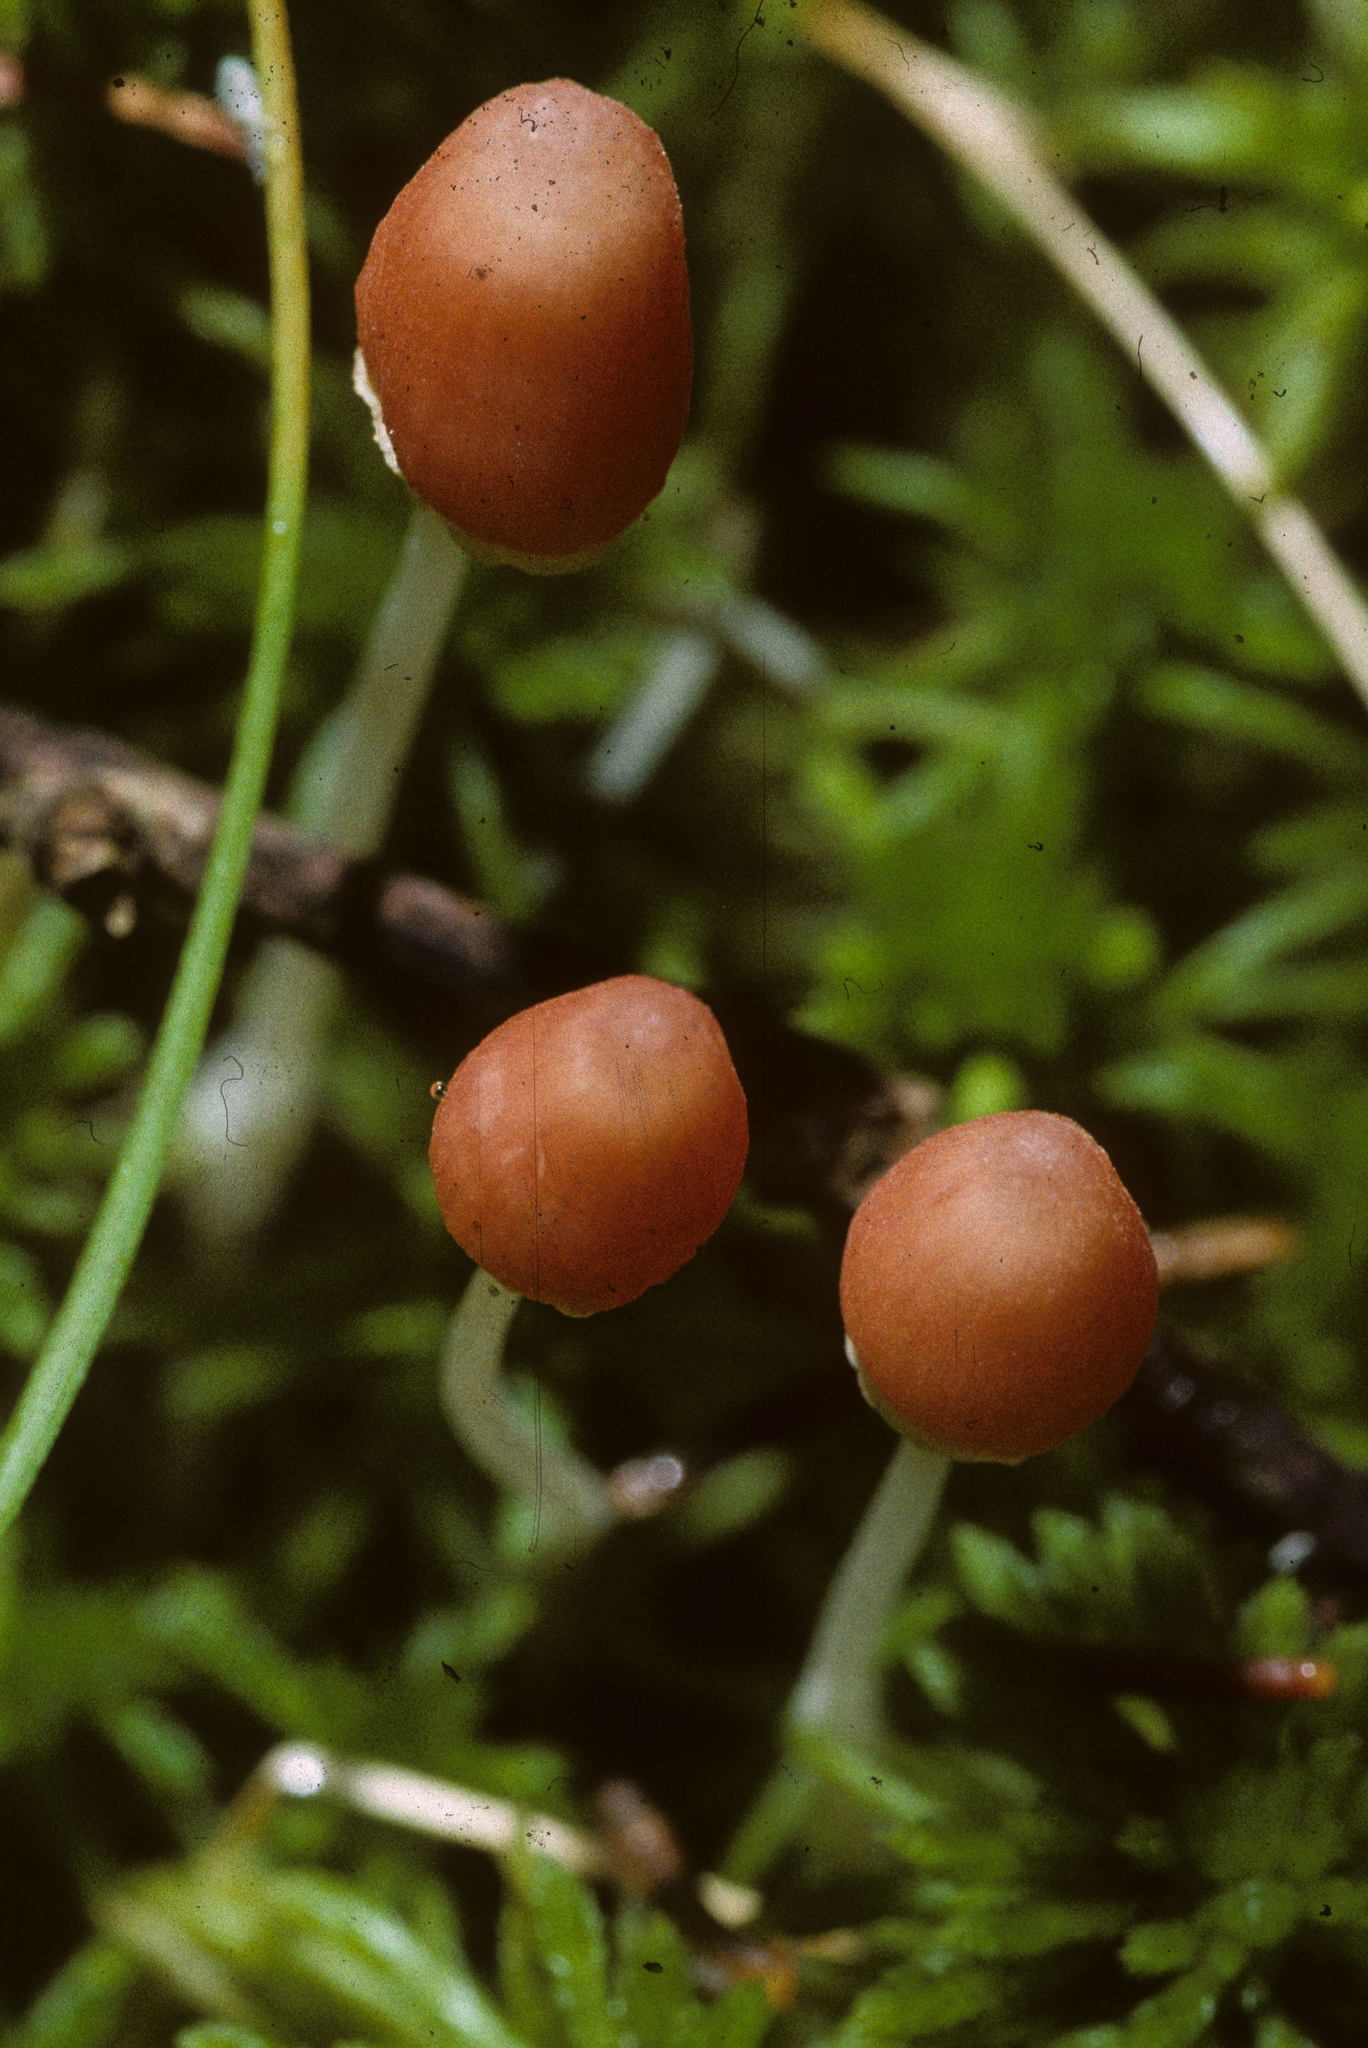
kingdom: Fungi
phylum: Basidiomycota
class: Agaricomycetes
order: Agaricales
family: Mycenaceae
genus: Atheniella
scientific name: Atheniella amabillissima
